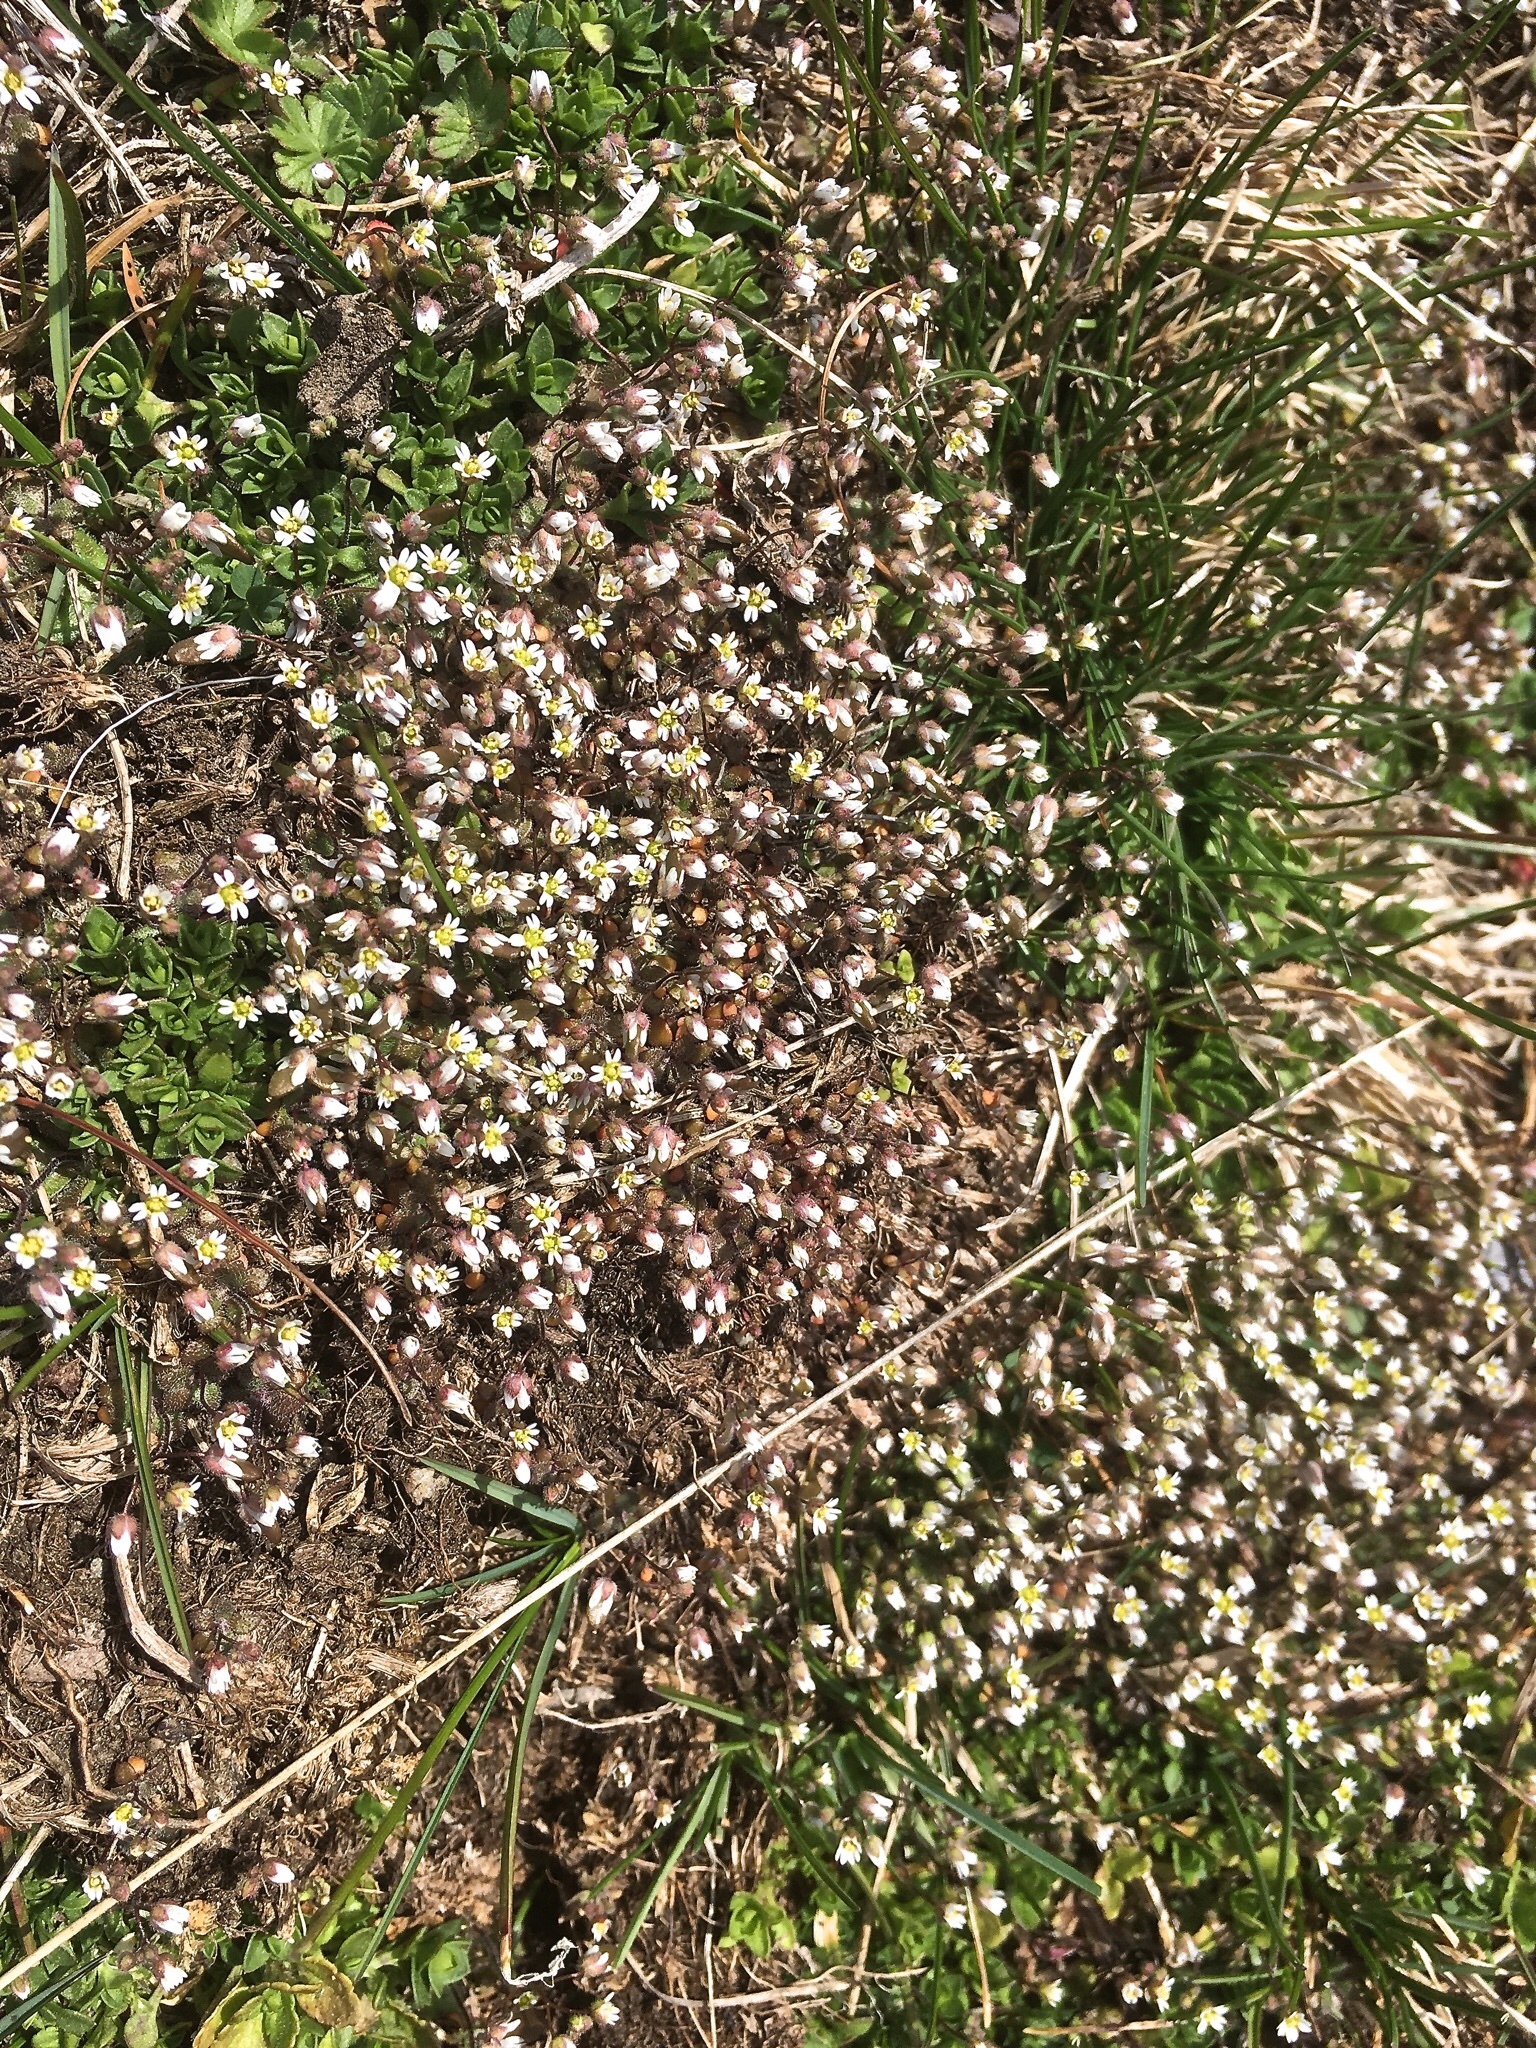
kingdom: Plantae
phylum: Tracheophyta
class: Magnoliopsida
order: Brassicales
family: Brassicaceae
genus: Draba
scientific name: Draba verna
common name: Spring draba
